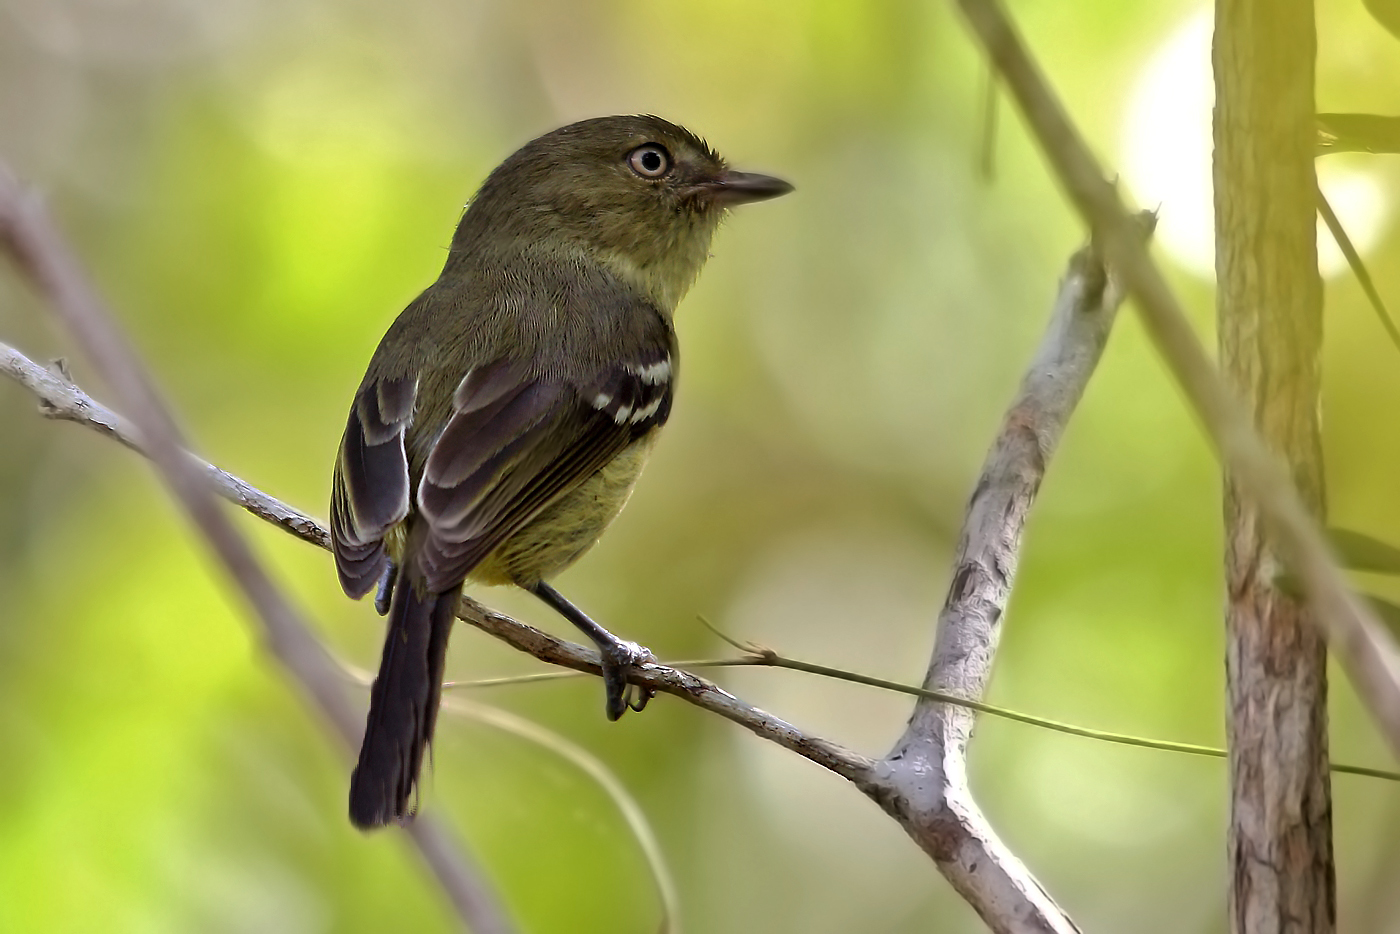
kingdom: Animalia
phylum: Chordata
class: Aves
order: Passeriformes
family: Vireonidae
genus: Vireo
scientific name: Vireo nanus
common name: Flat-billed vireo
